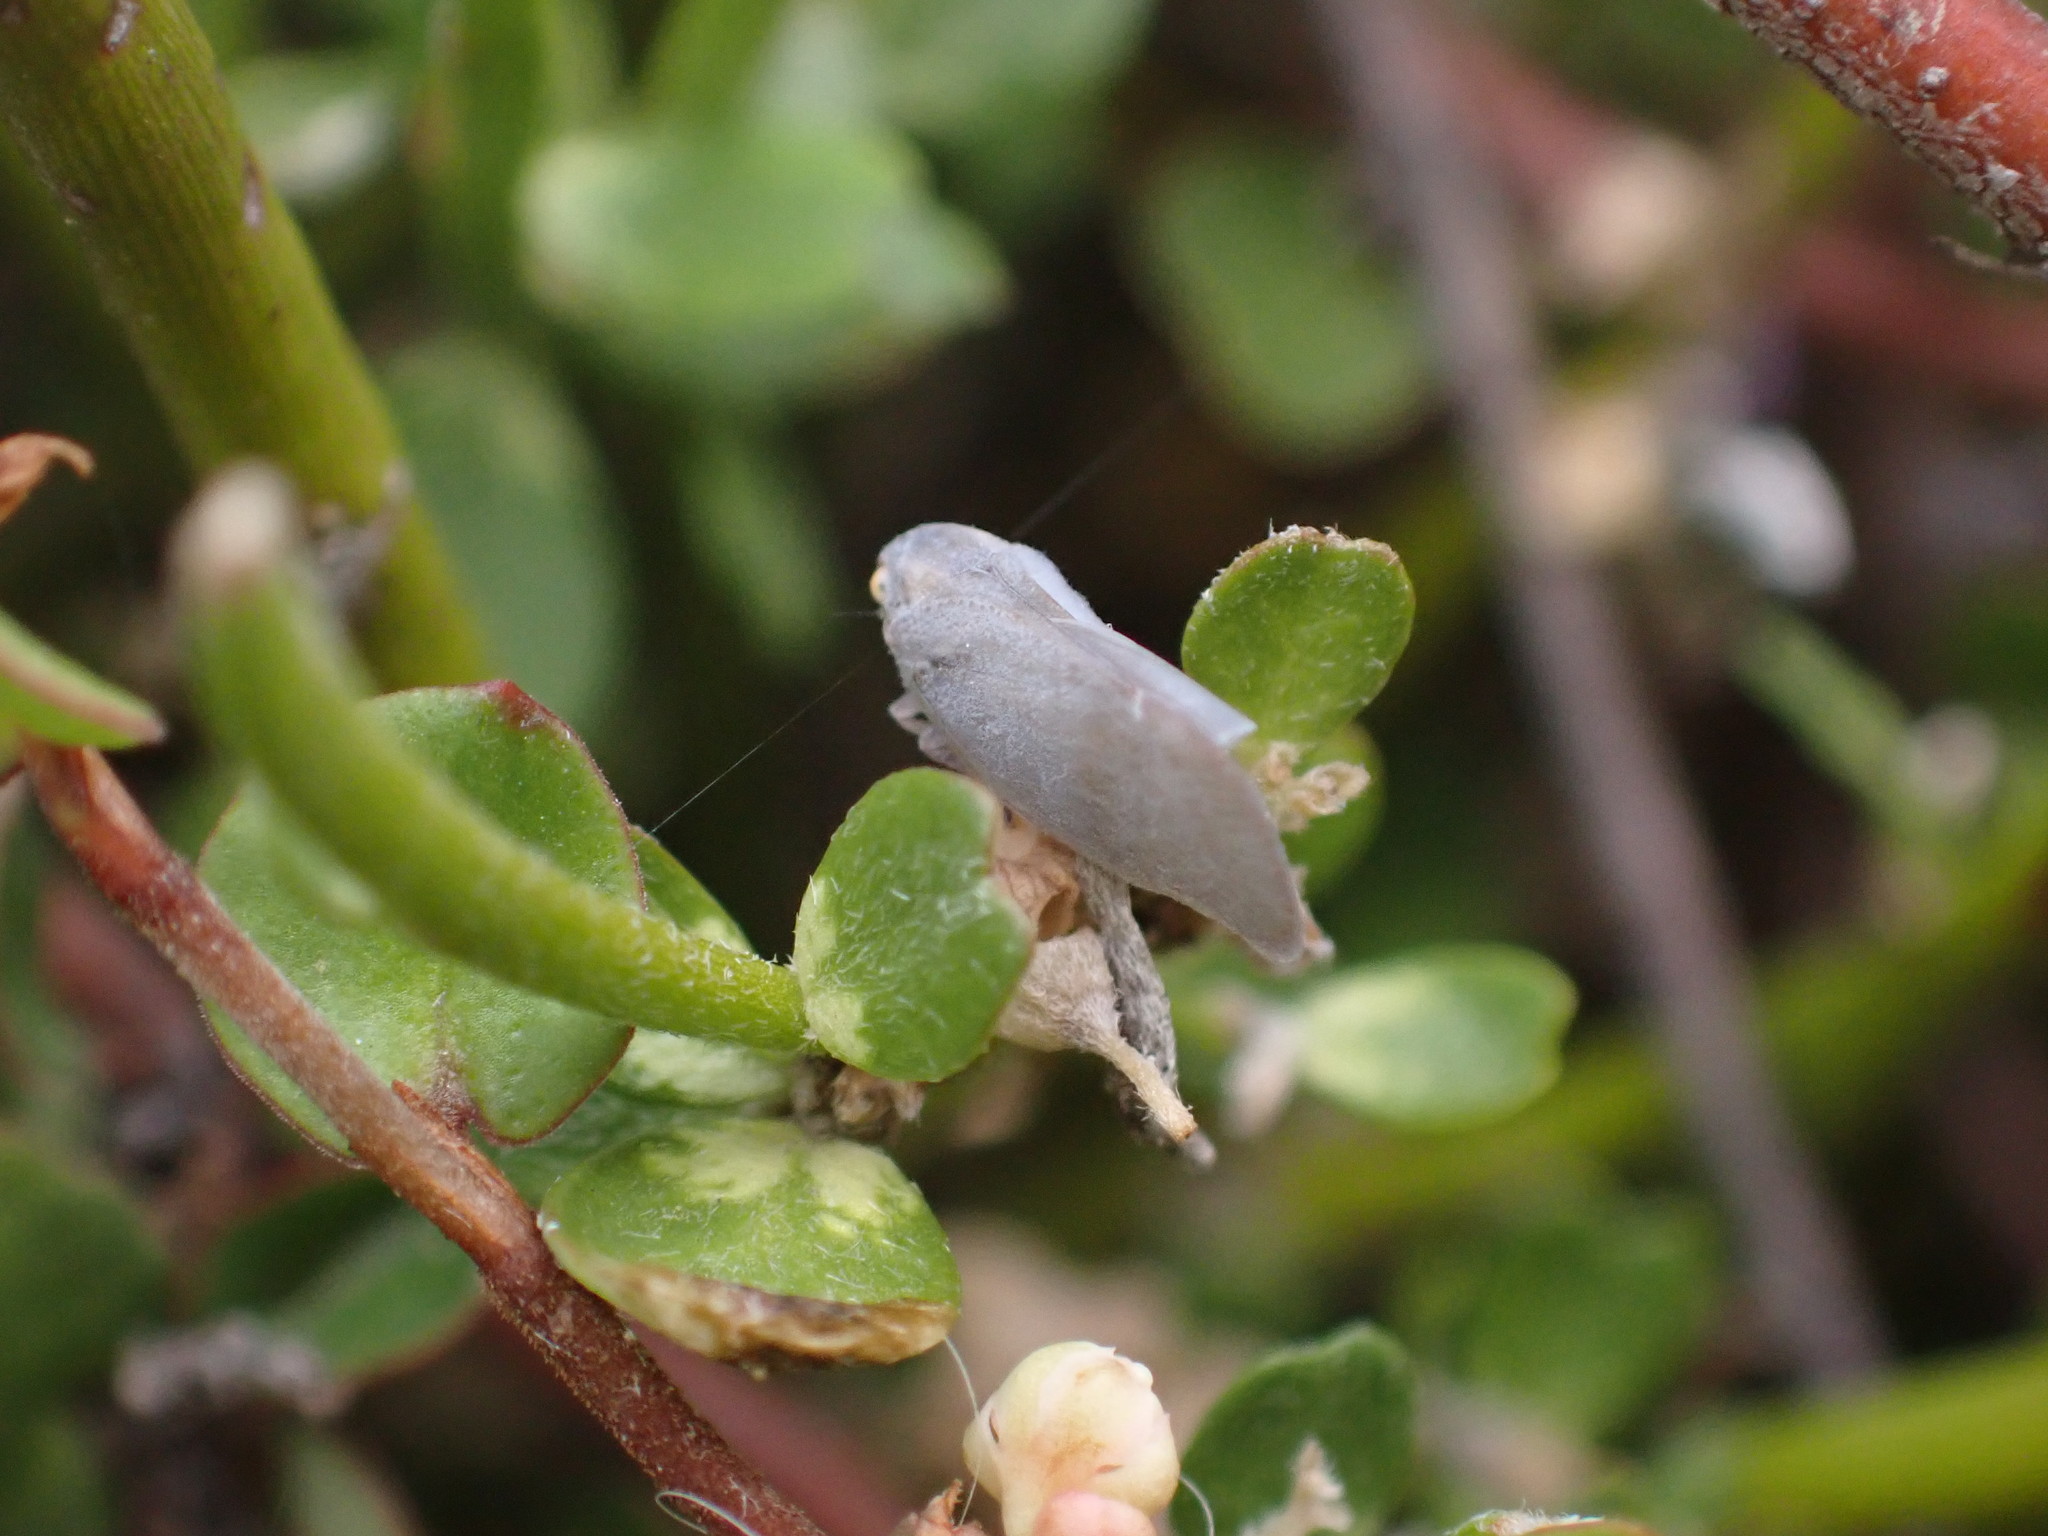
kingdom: Animalia
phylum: Arthropoda
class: Insecta
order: Hemiptera
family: Flatidae
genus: Anzora
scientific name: Anzora unicolor
